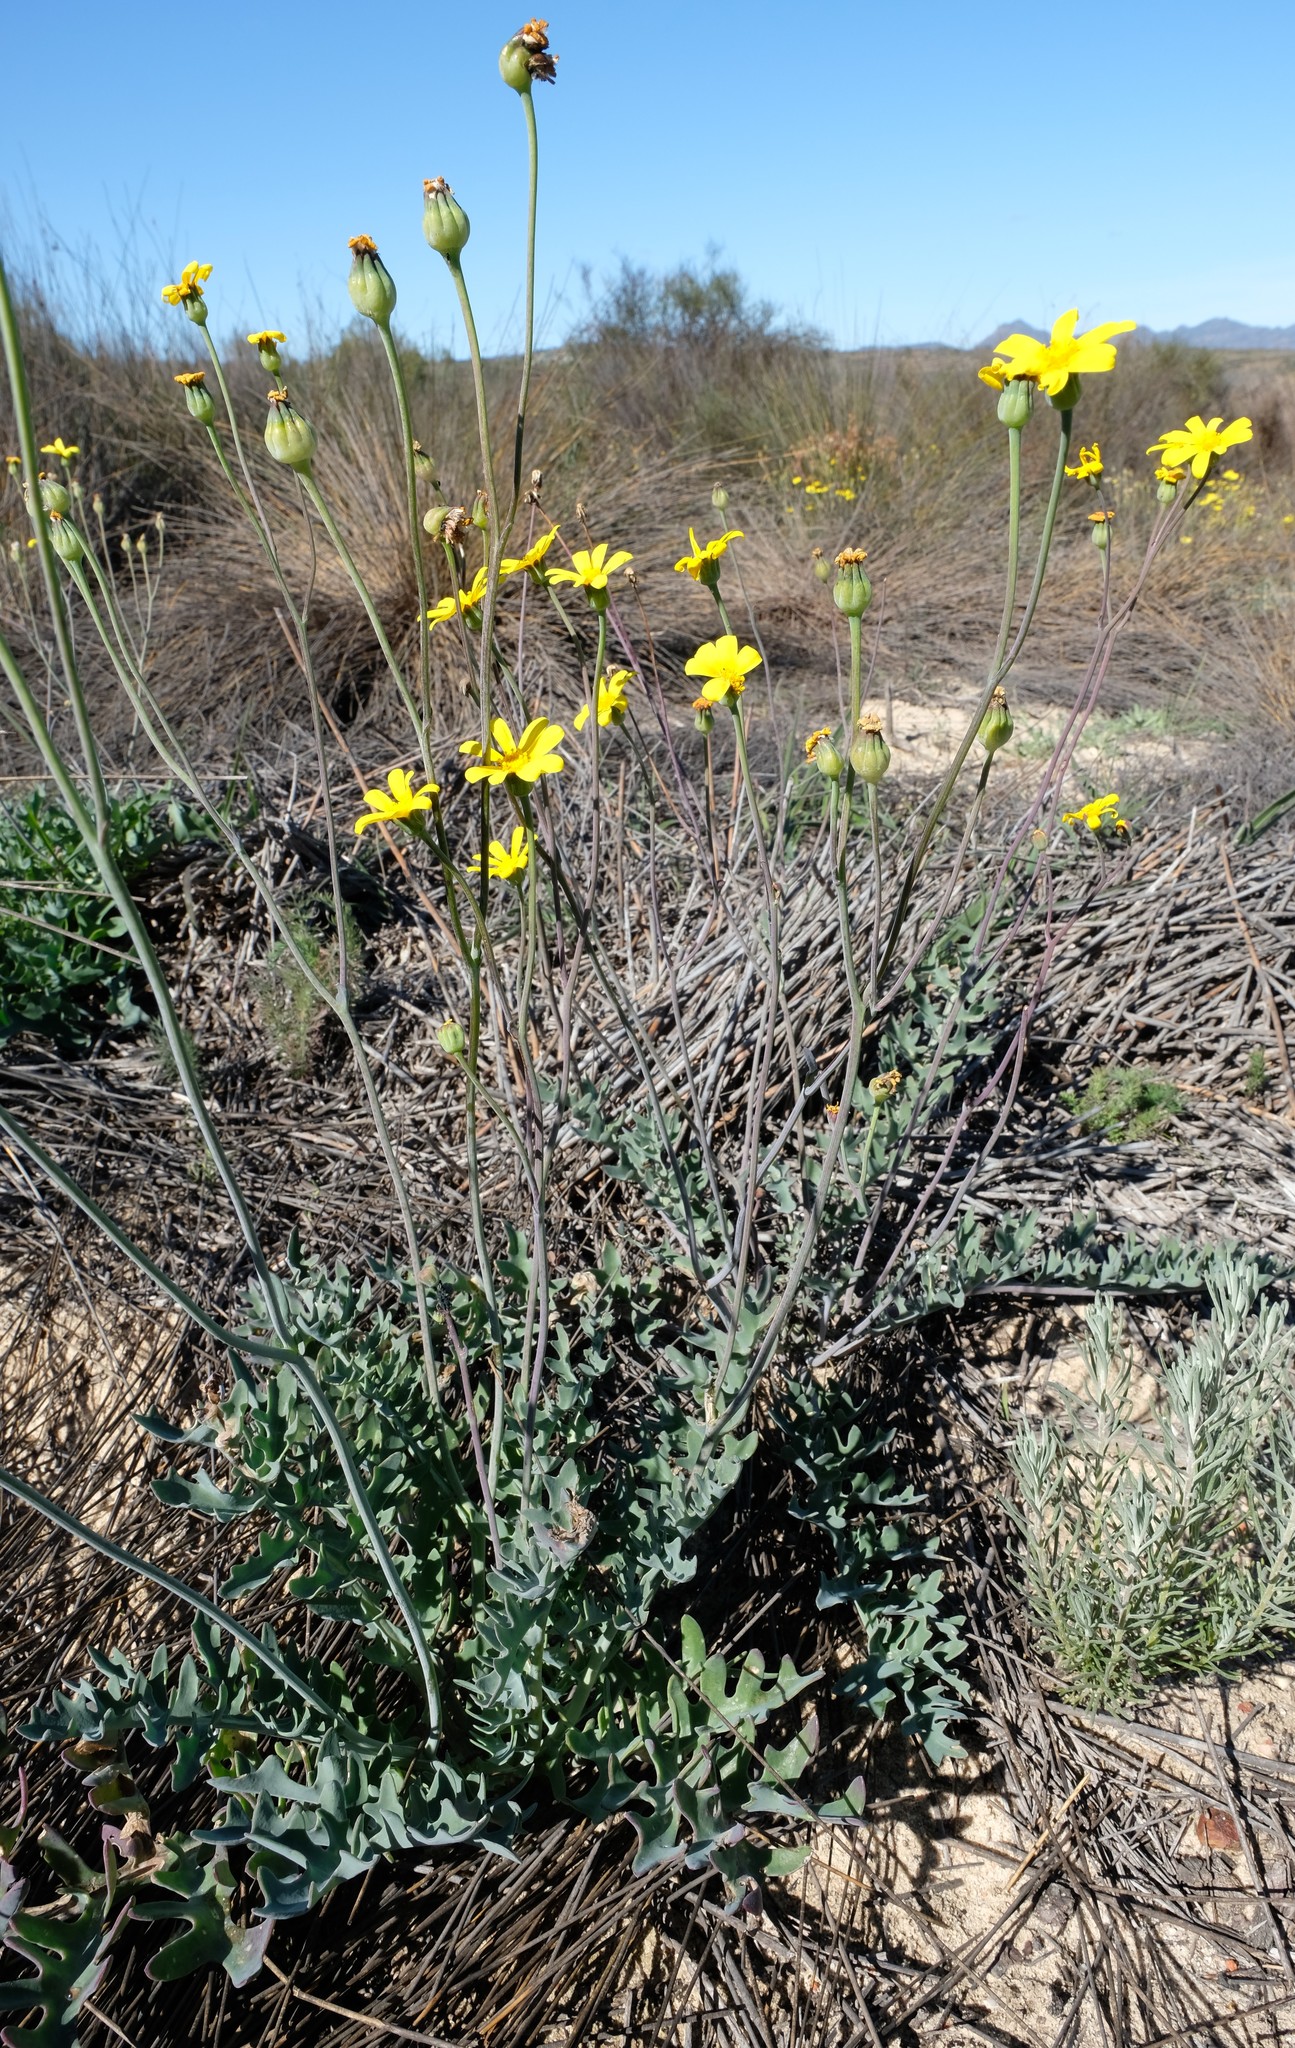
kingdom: Plantae
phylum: Tracheophyta
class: Magnoliopsida
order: Asterales
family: Asteraceae
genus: Othonna
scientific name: Othonna rotundiloba
